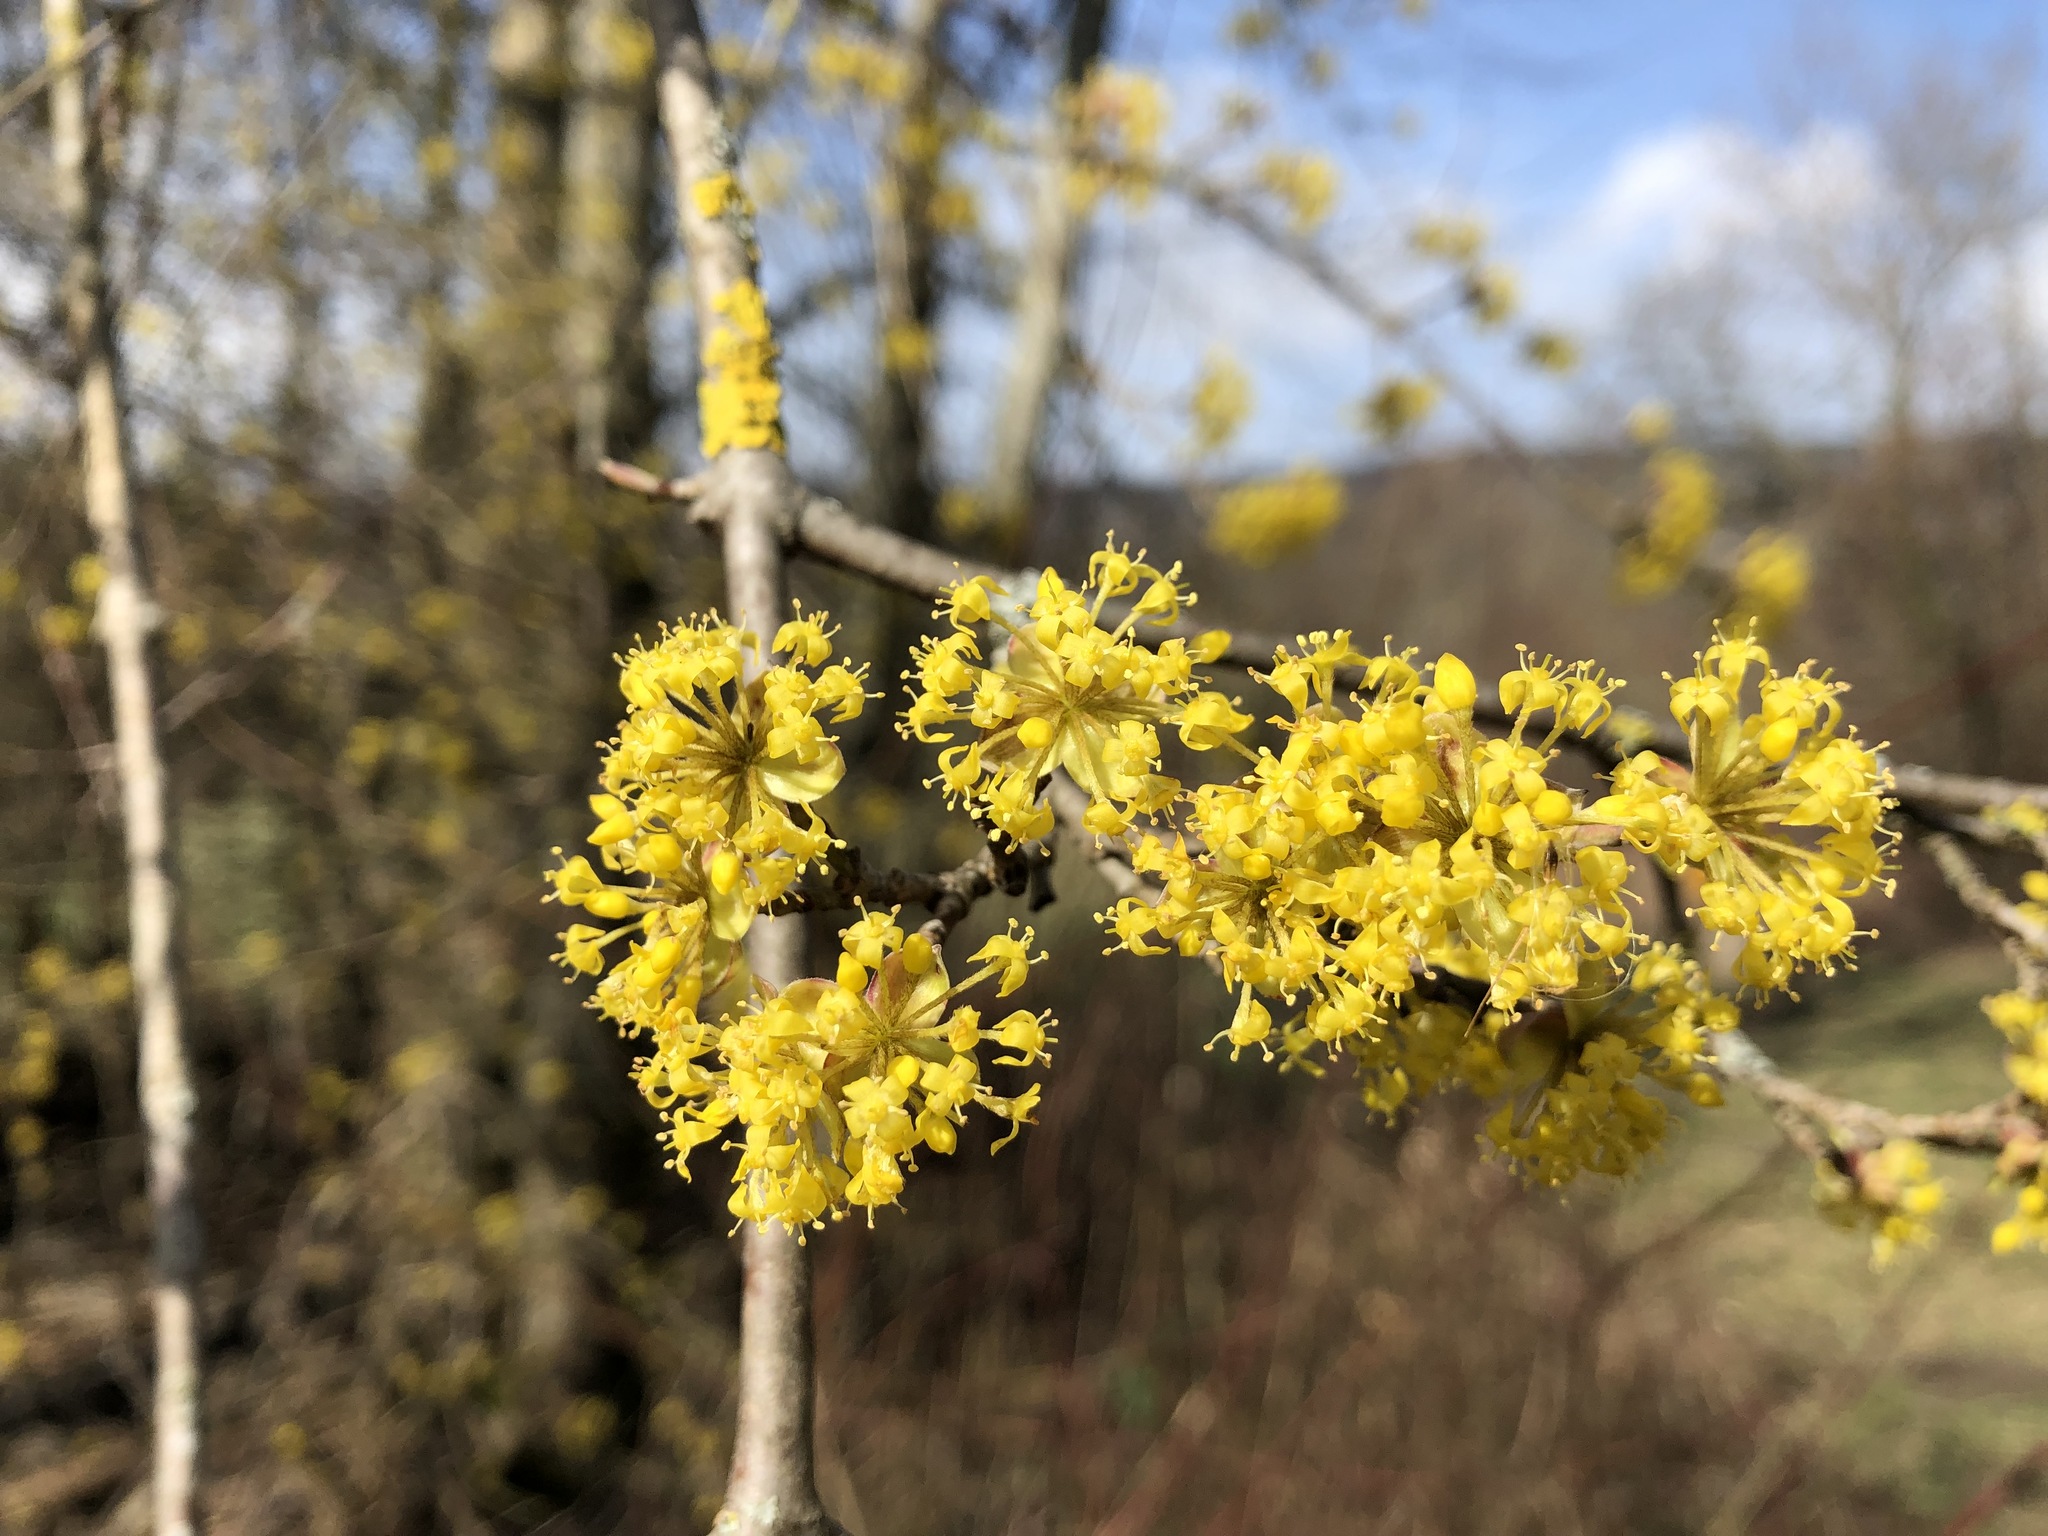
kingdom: Plantae
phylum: Tracheophyta
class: Magnoliopsida
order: Cornales
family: Cornaceae
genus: Cornus
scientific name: Cornus mas
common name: Cornelian-cherry
